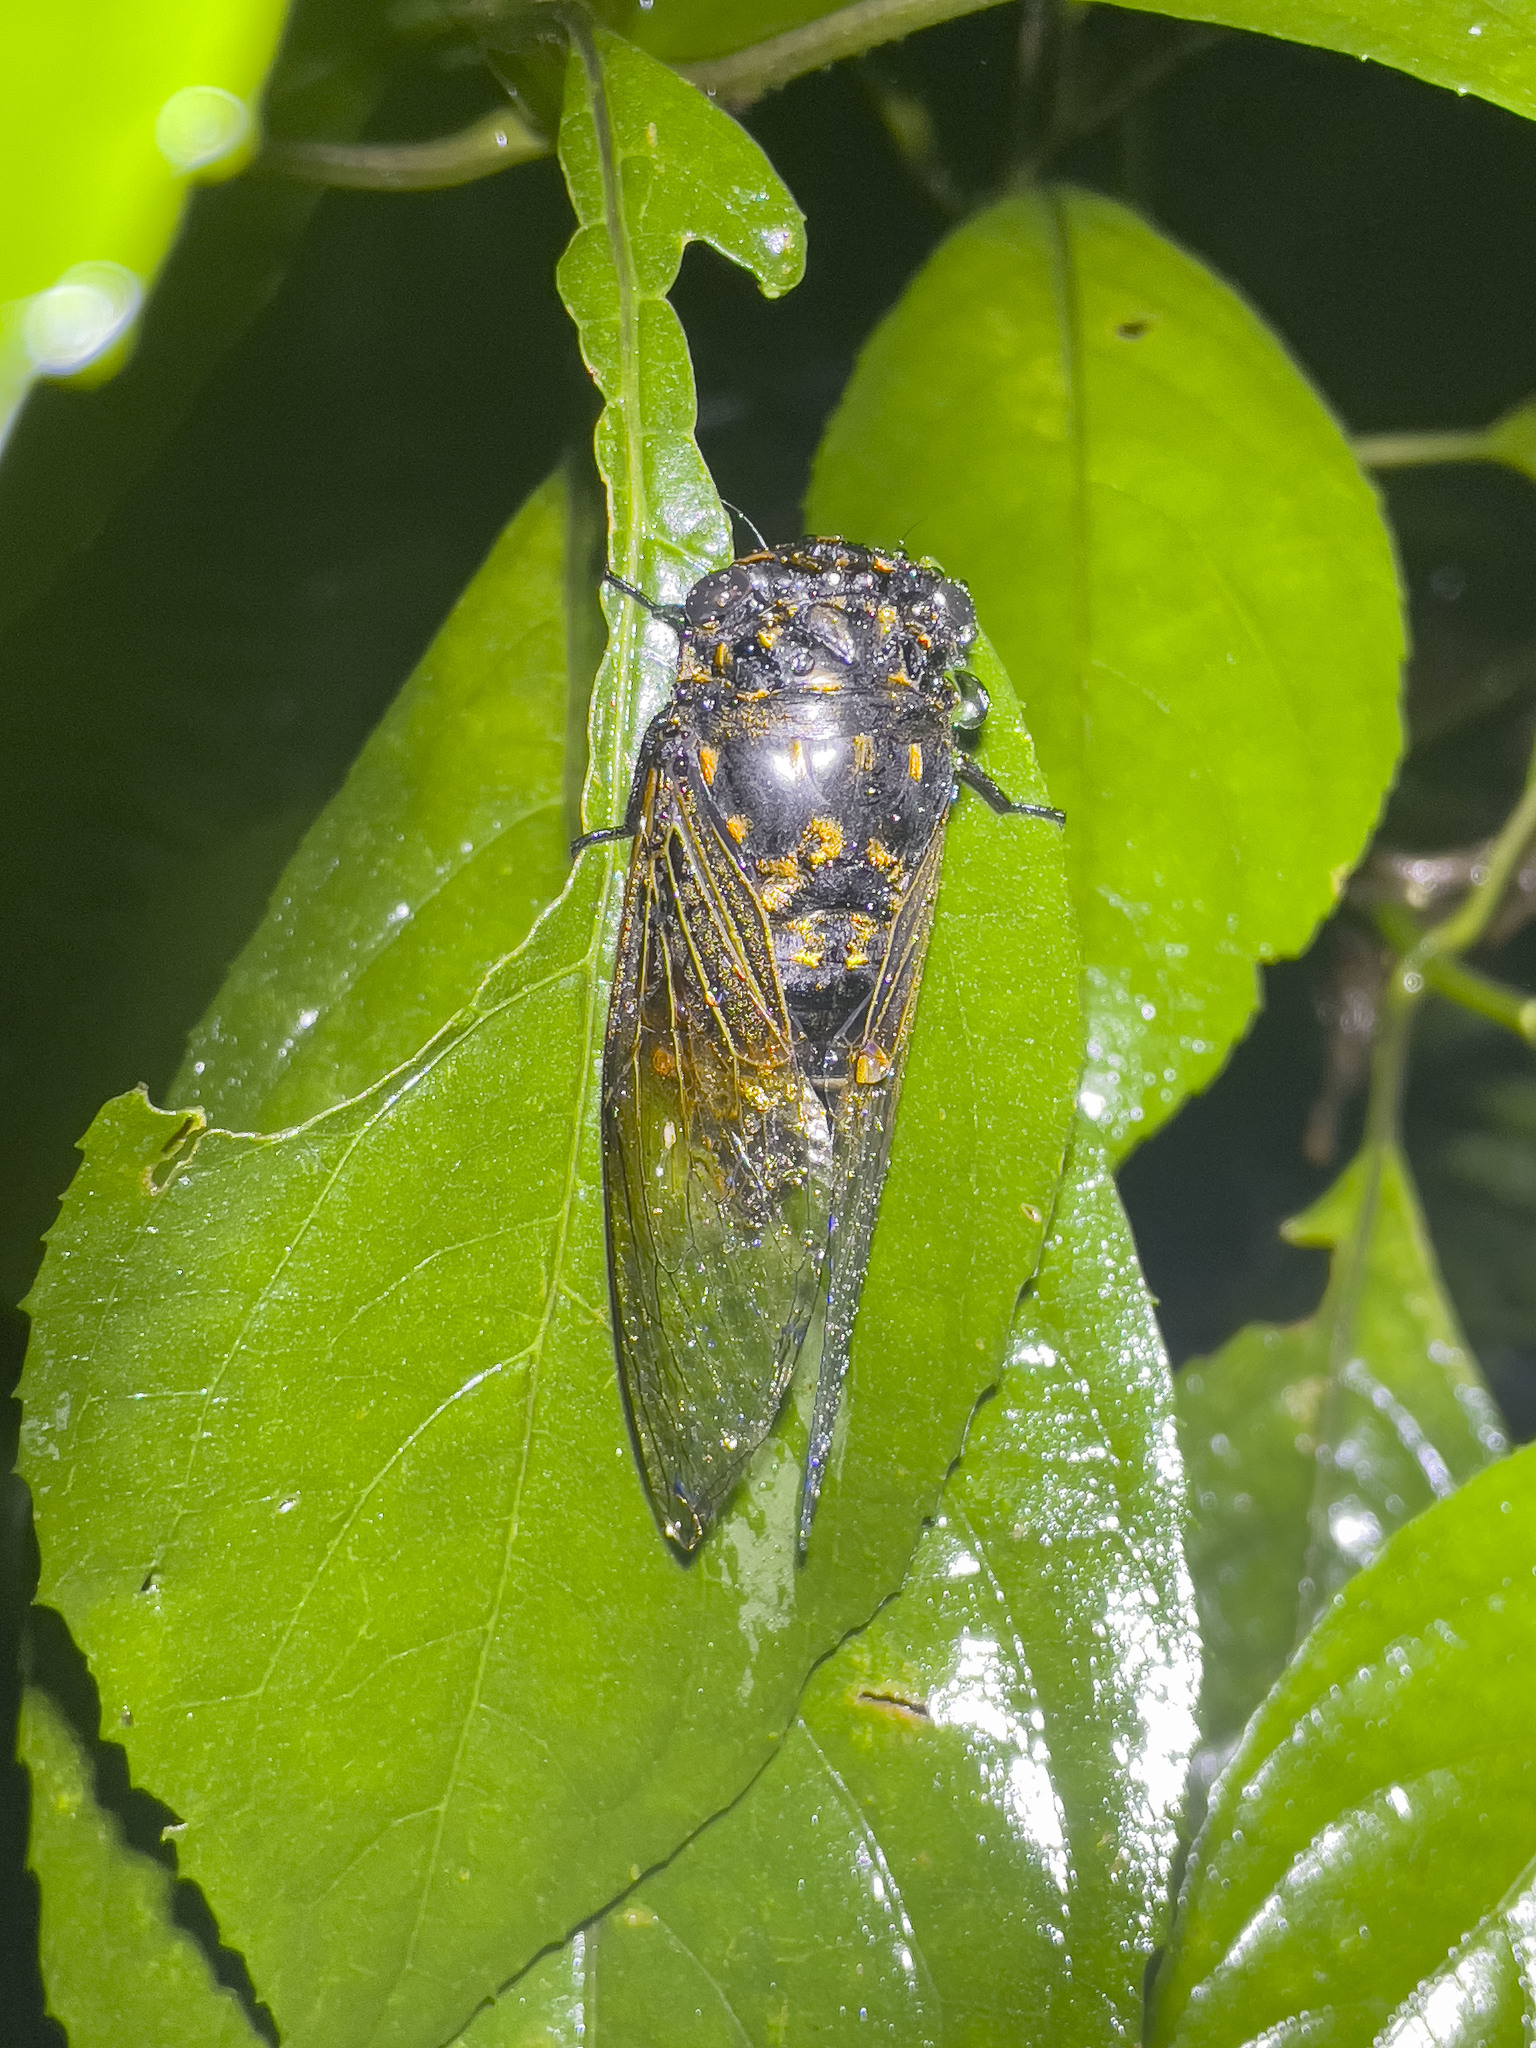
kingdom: Animalia
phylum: Arthropoda
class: Insecta
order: Hemiptera
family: Cicadidae
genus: Cryptotympana
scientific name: Cryptotympana mandarina
